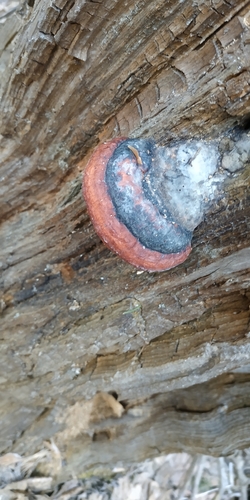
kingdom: Fungi
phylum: Basidiomycota
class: Agaricomycetes
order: Polyporales
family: Fomitopsidaceae
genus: Fomitopsis
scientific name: Fomitopsis pinicola
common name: Red-belted bracket
